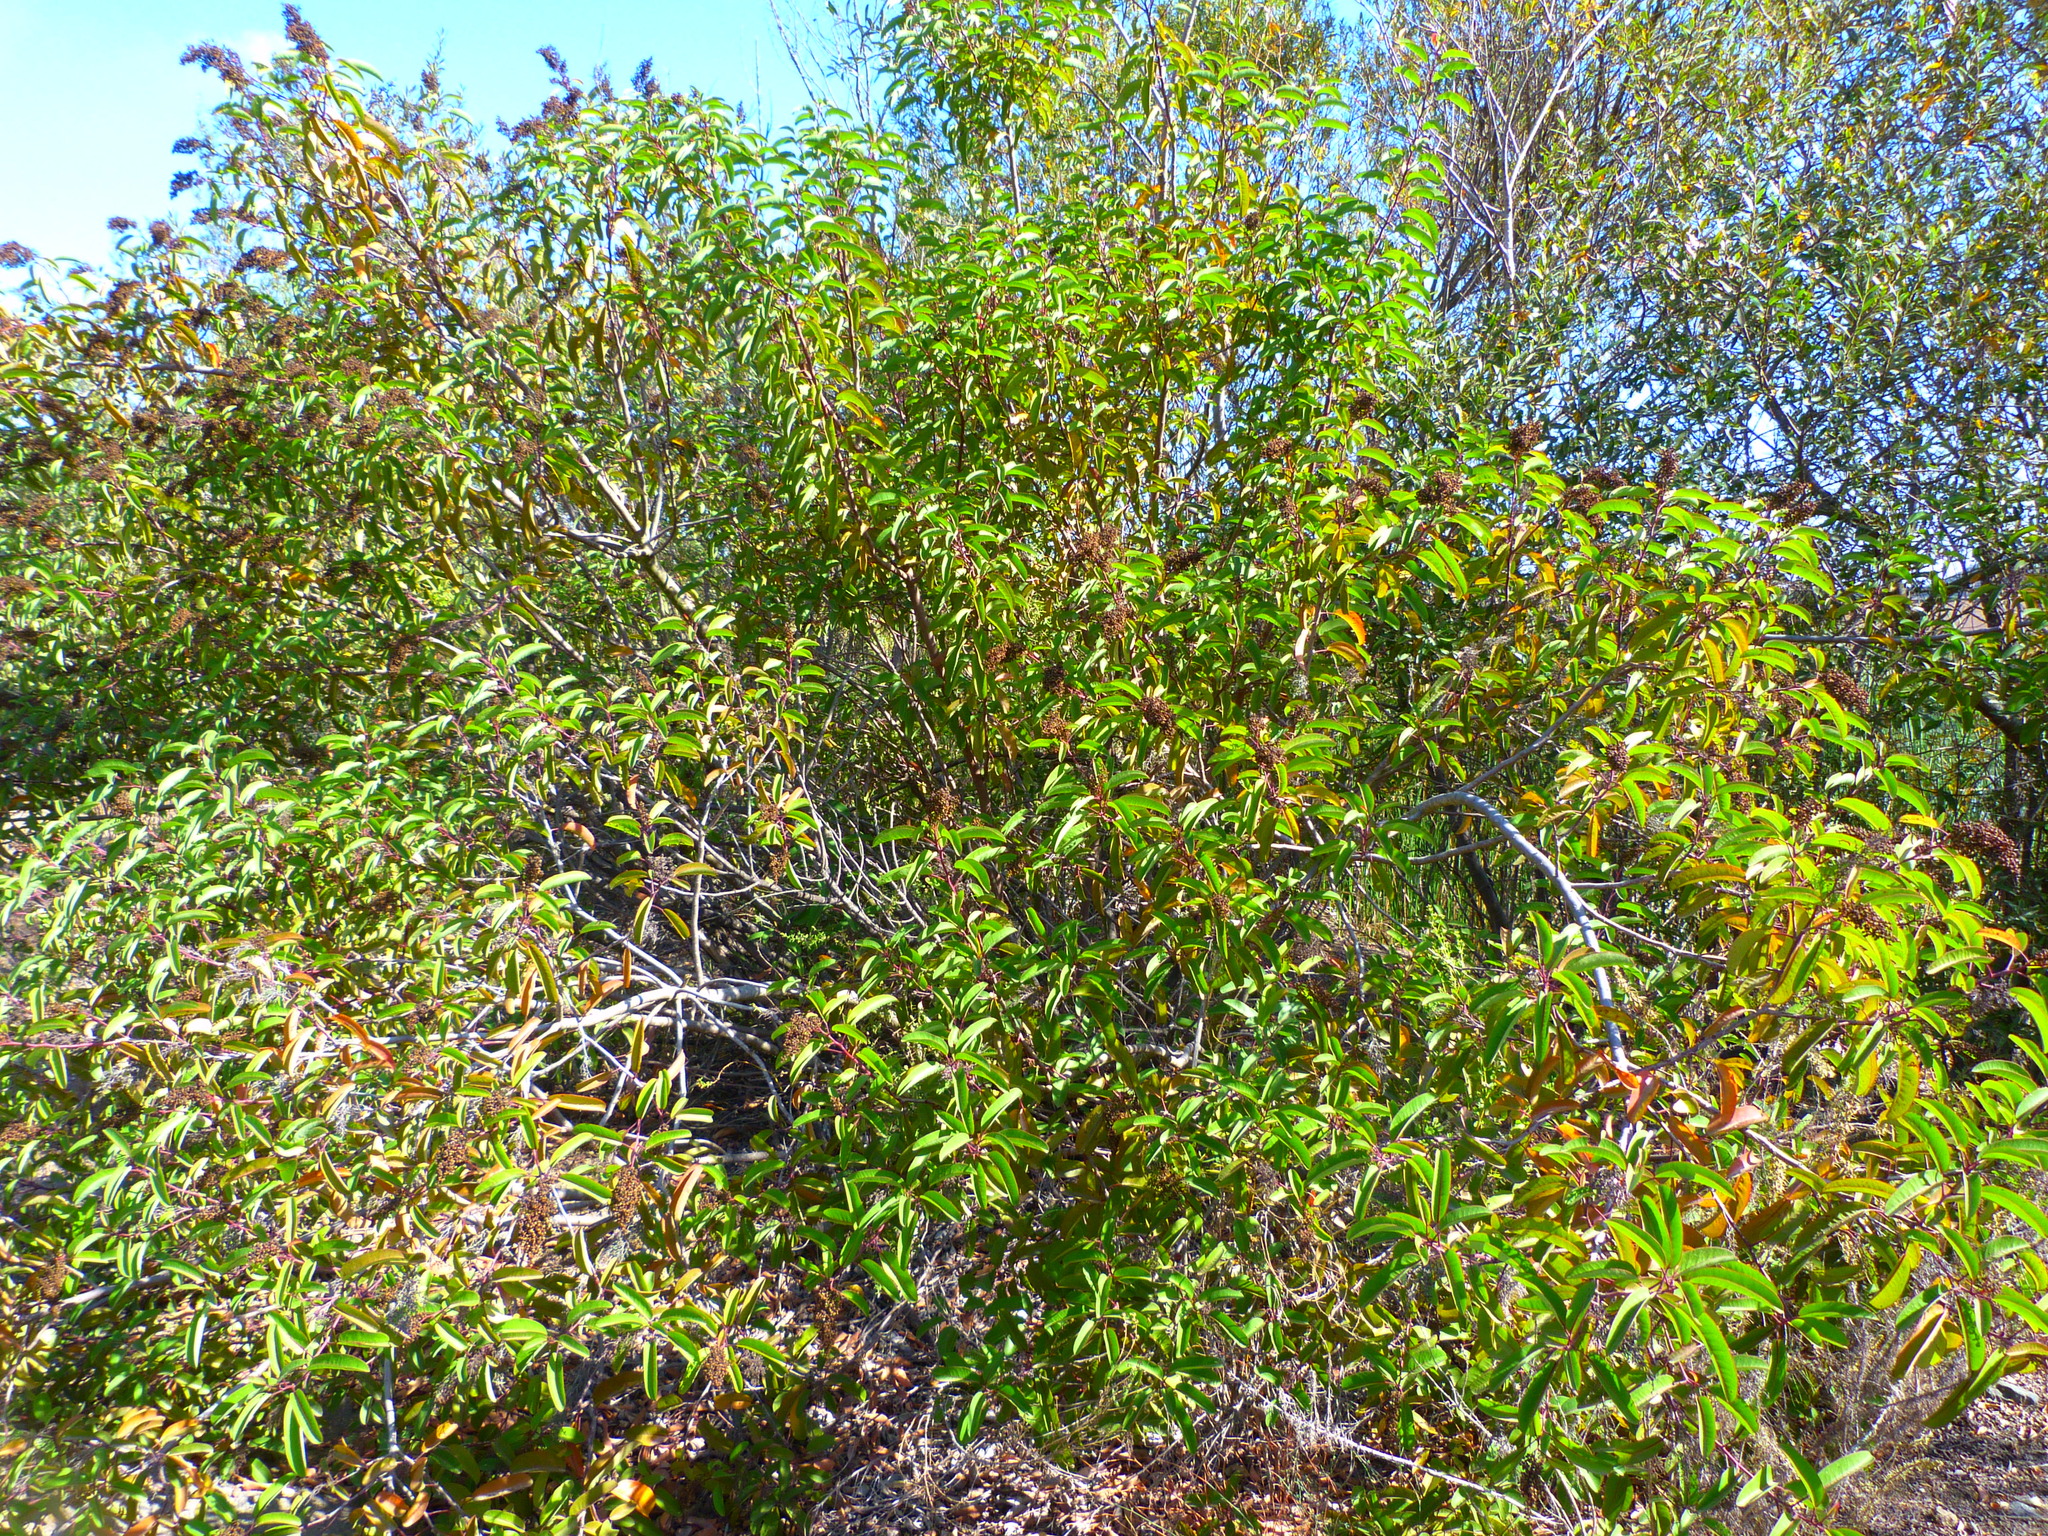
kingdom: Plantae
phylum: Tracheophyta
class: Magnoliopsida
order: Sapindales
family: Anacardiaceae
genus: Malosma
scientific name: Malosma laurina
